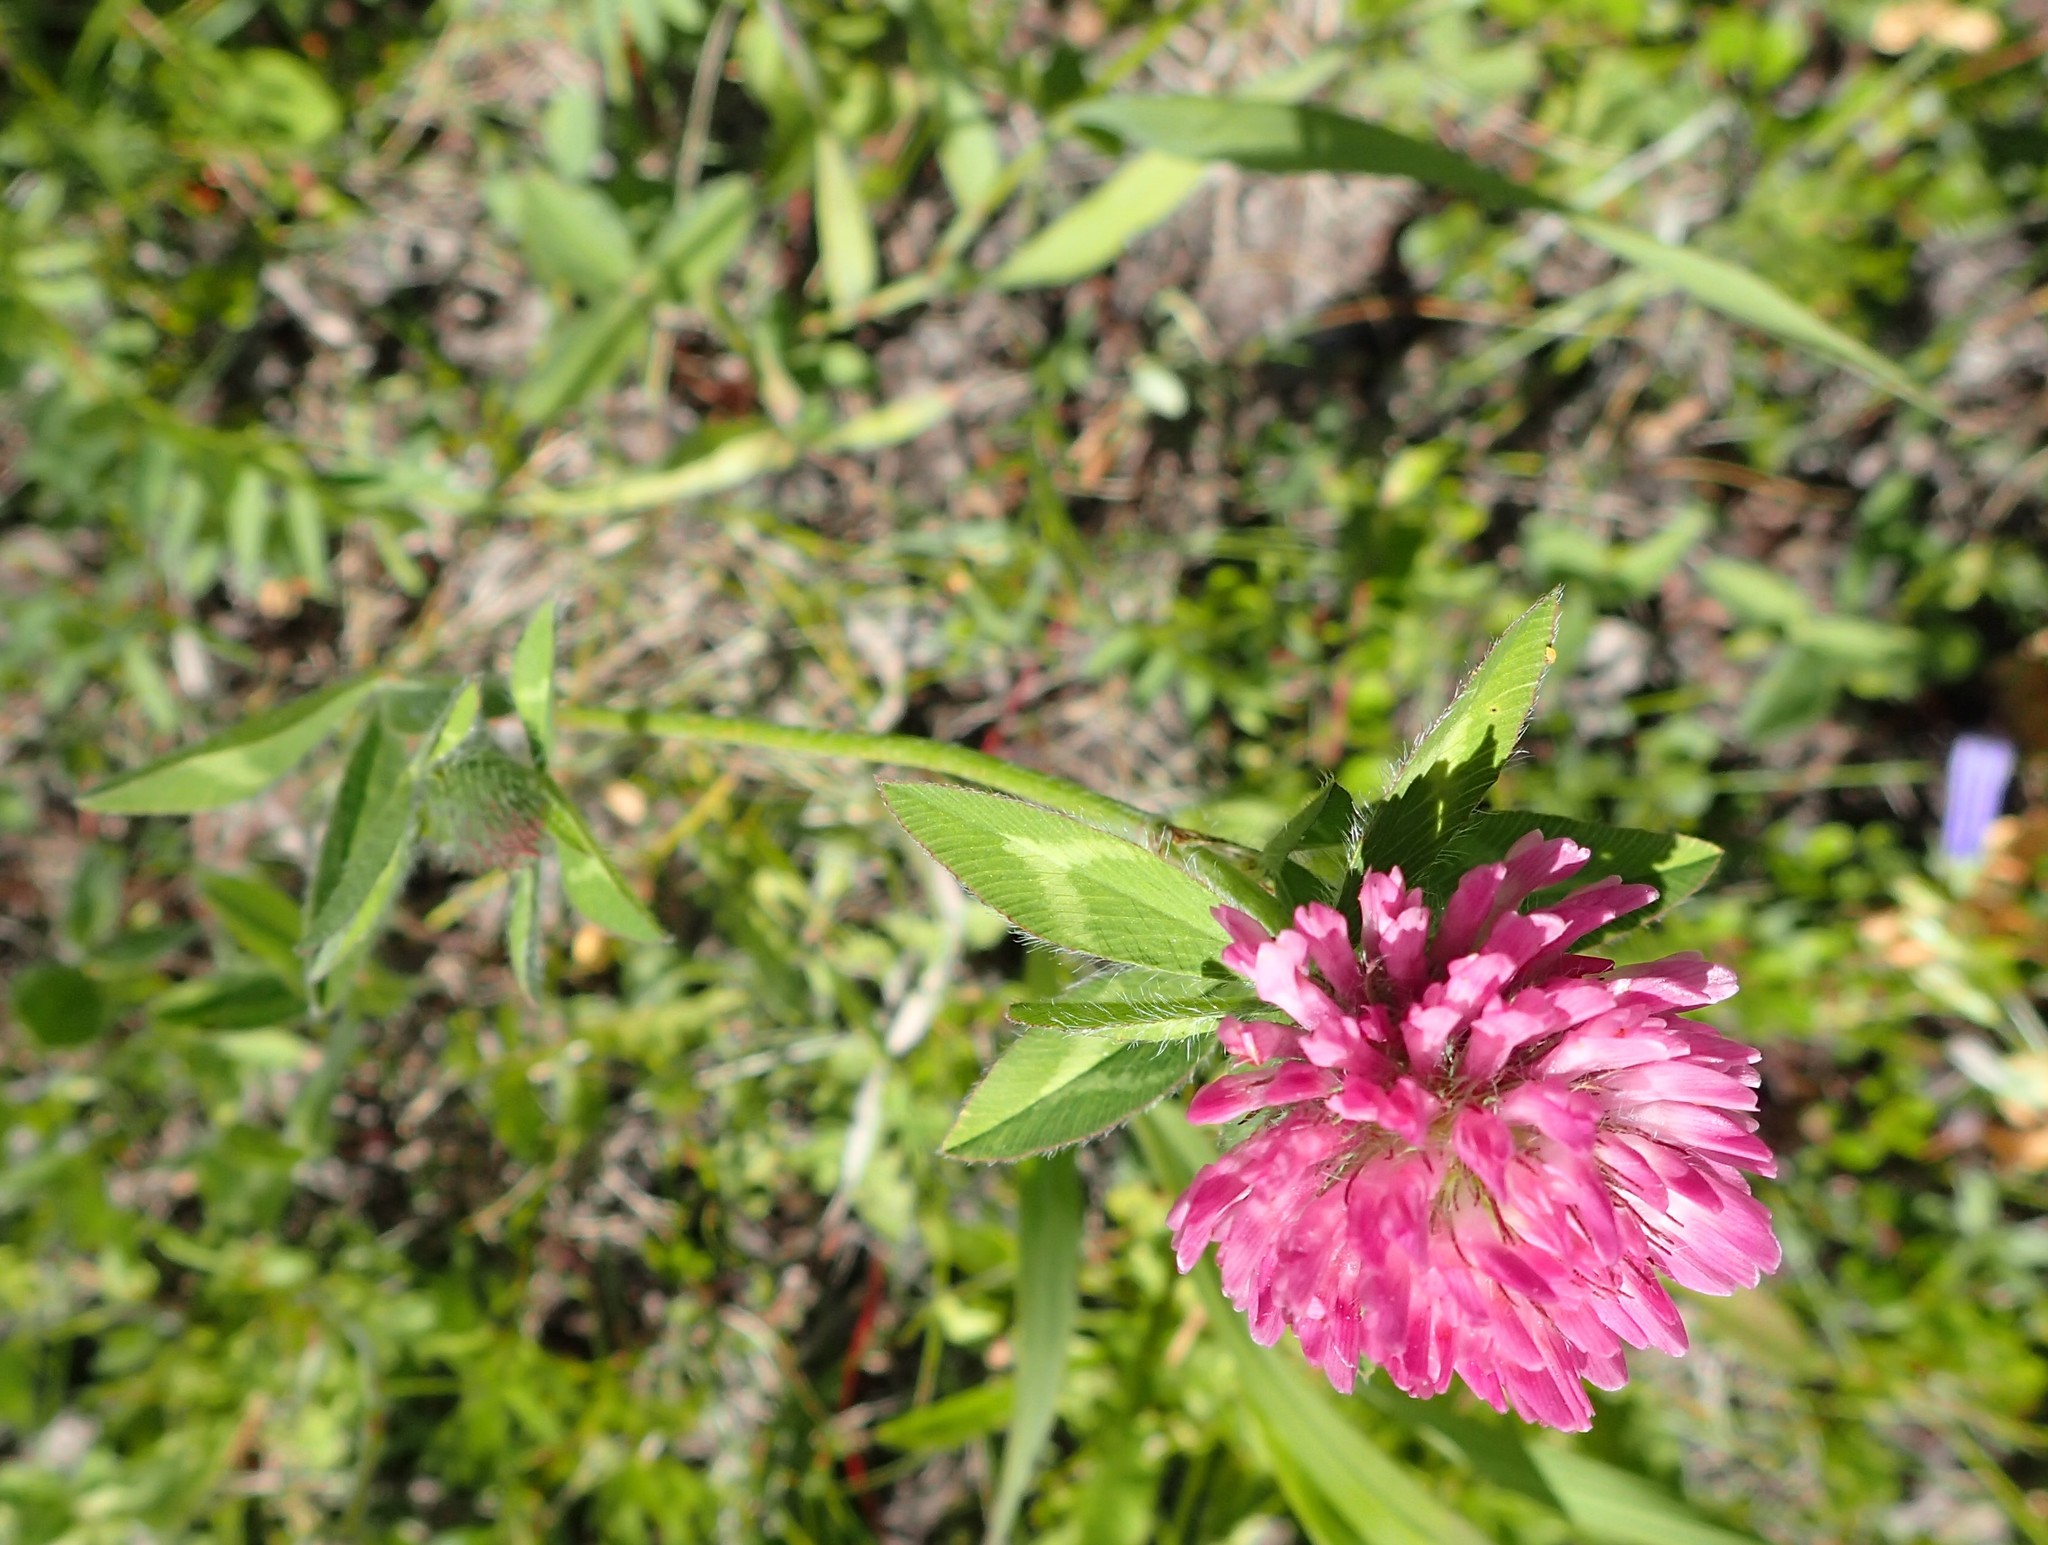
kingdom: Plantae
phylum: Tracheophyta
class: Magnoliopsida
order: Fabales
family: Fabaceae
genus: Trifolium
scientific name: Trifolium pratense
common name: Red clover
